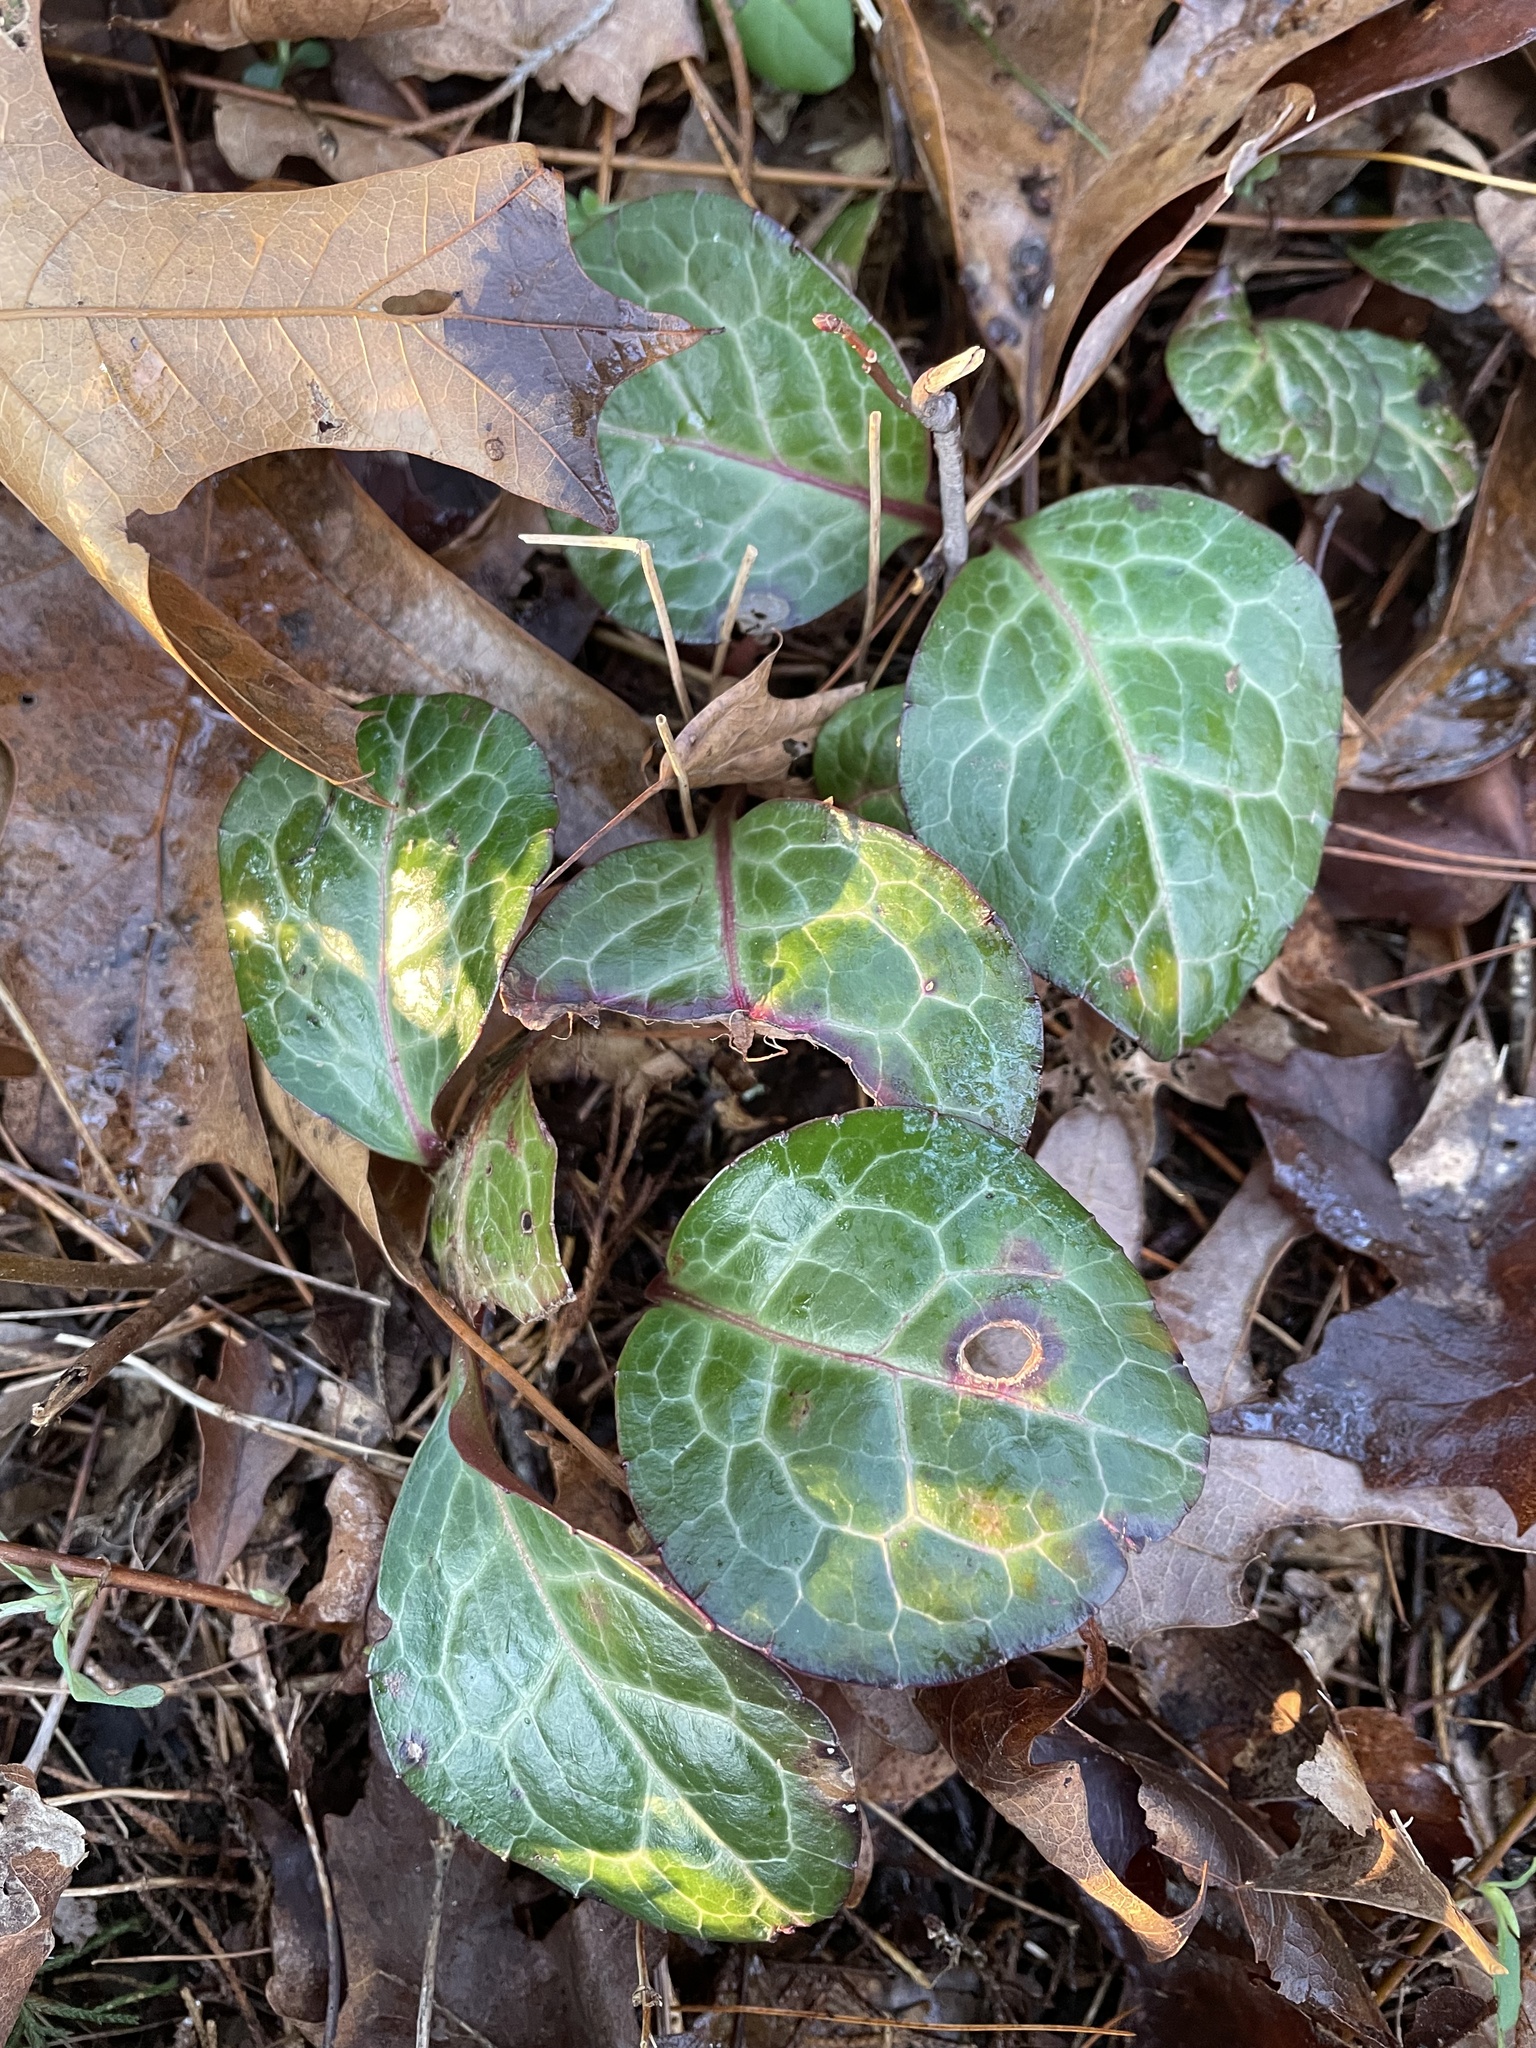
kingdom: Plantae
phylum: Tracheophyta
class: Magnoliopsida
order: Ericales
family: Ericaceae
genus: Pyrola
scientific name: Pyrola americana
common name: American wintergreen
